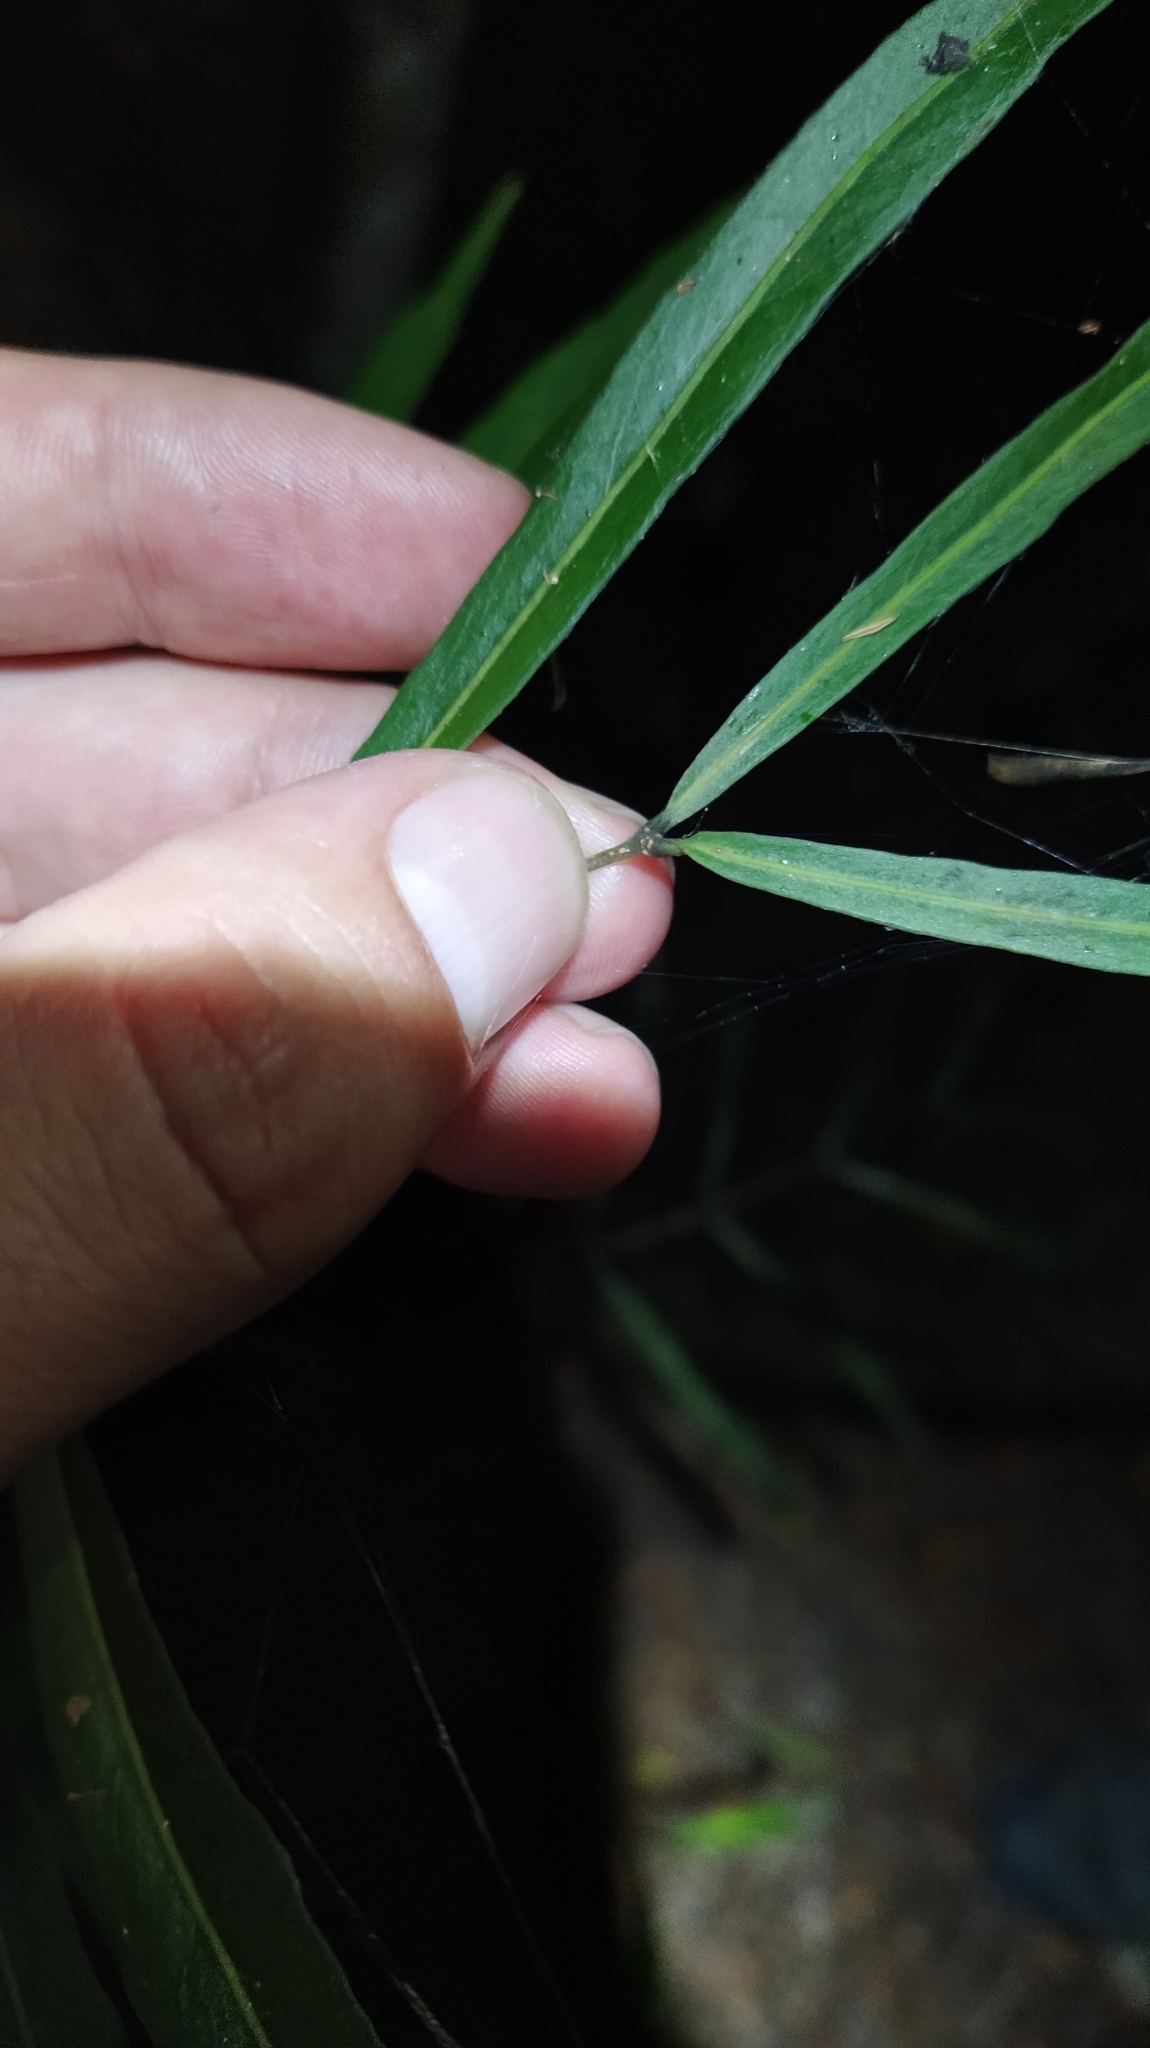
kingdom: Plantae
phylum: Tracheophyta
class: Magnoliopsida
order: Santalales
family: Nanodeaceae
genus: Mida
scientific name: Mida salicifolia
